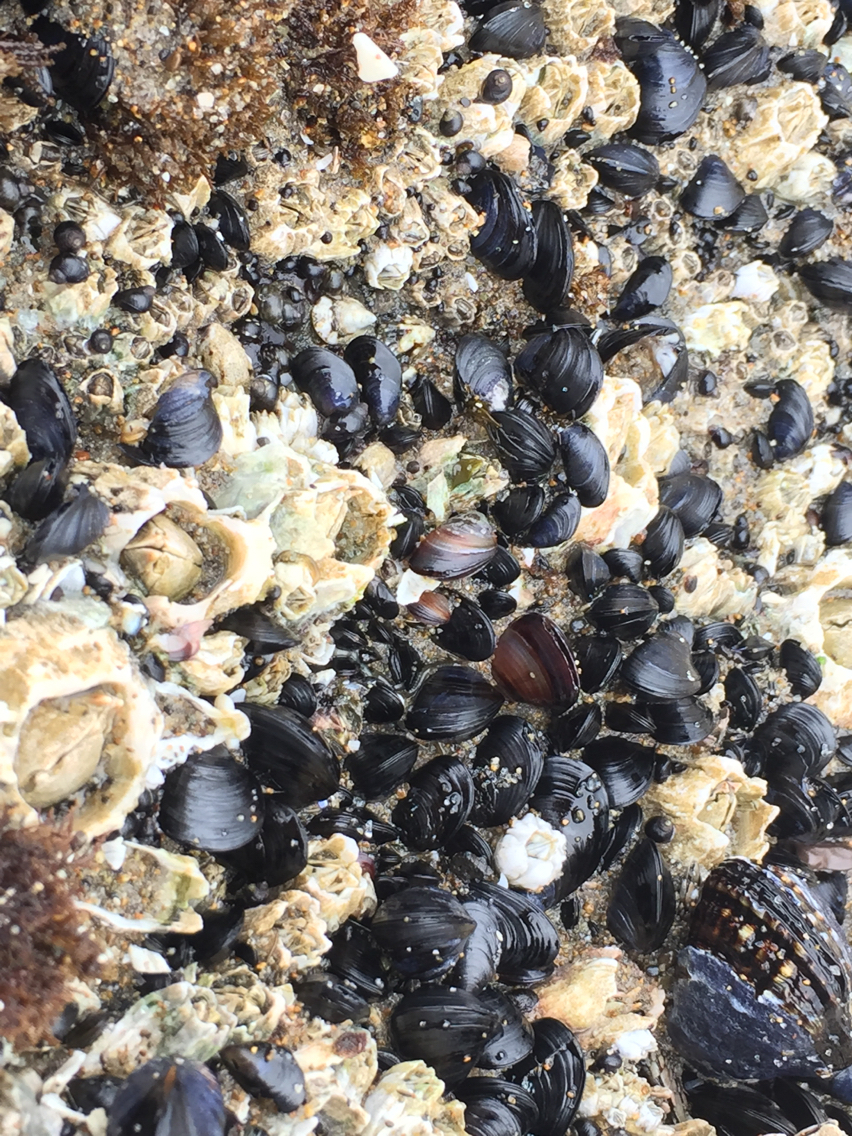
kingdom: Animalia
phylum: Mollusca
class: Bivalvia
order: Mytilida
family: Mytilidae
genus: Mytilus
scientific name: Mytilus californianus
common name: California mussel
